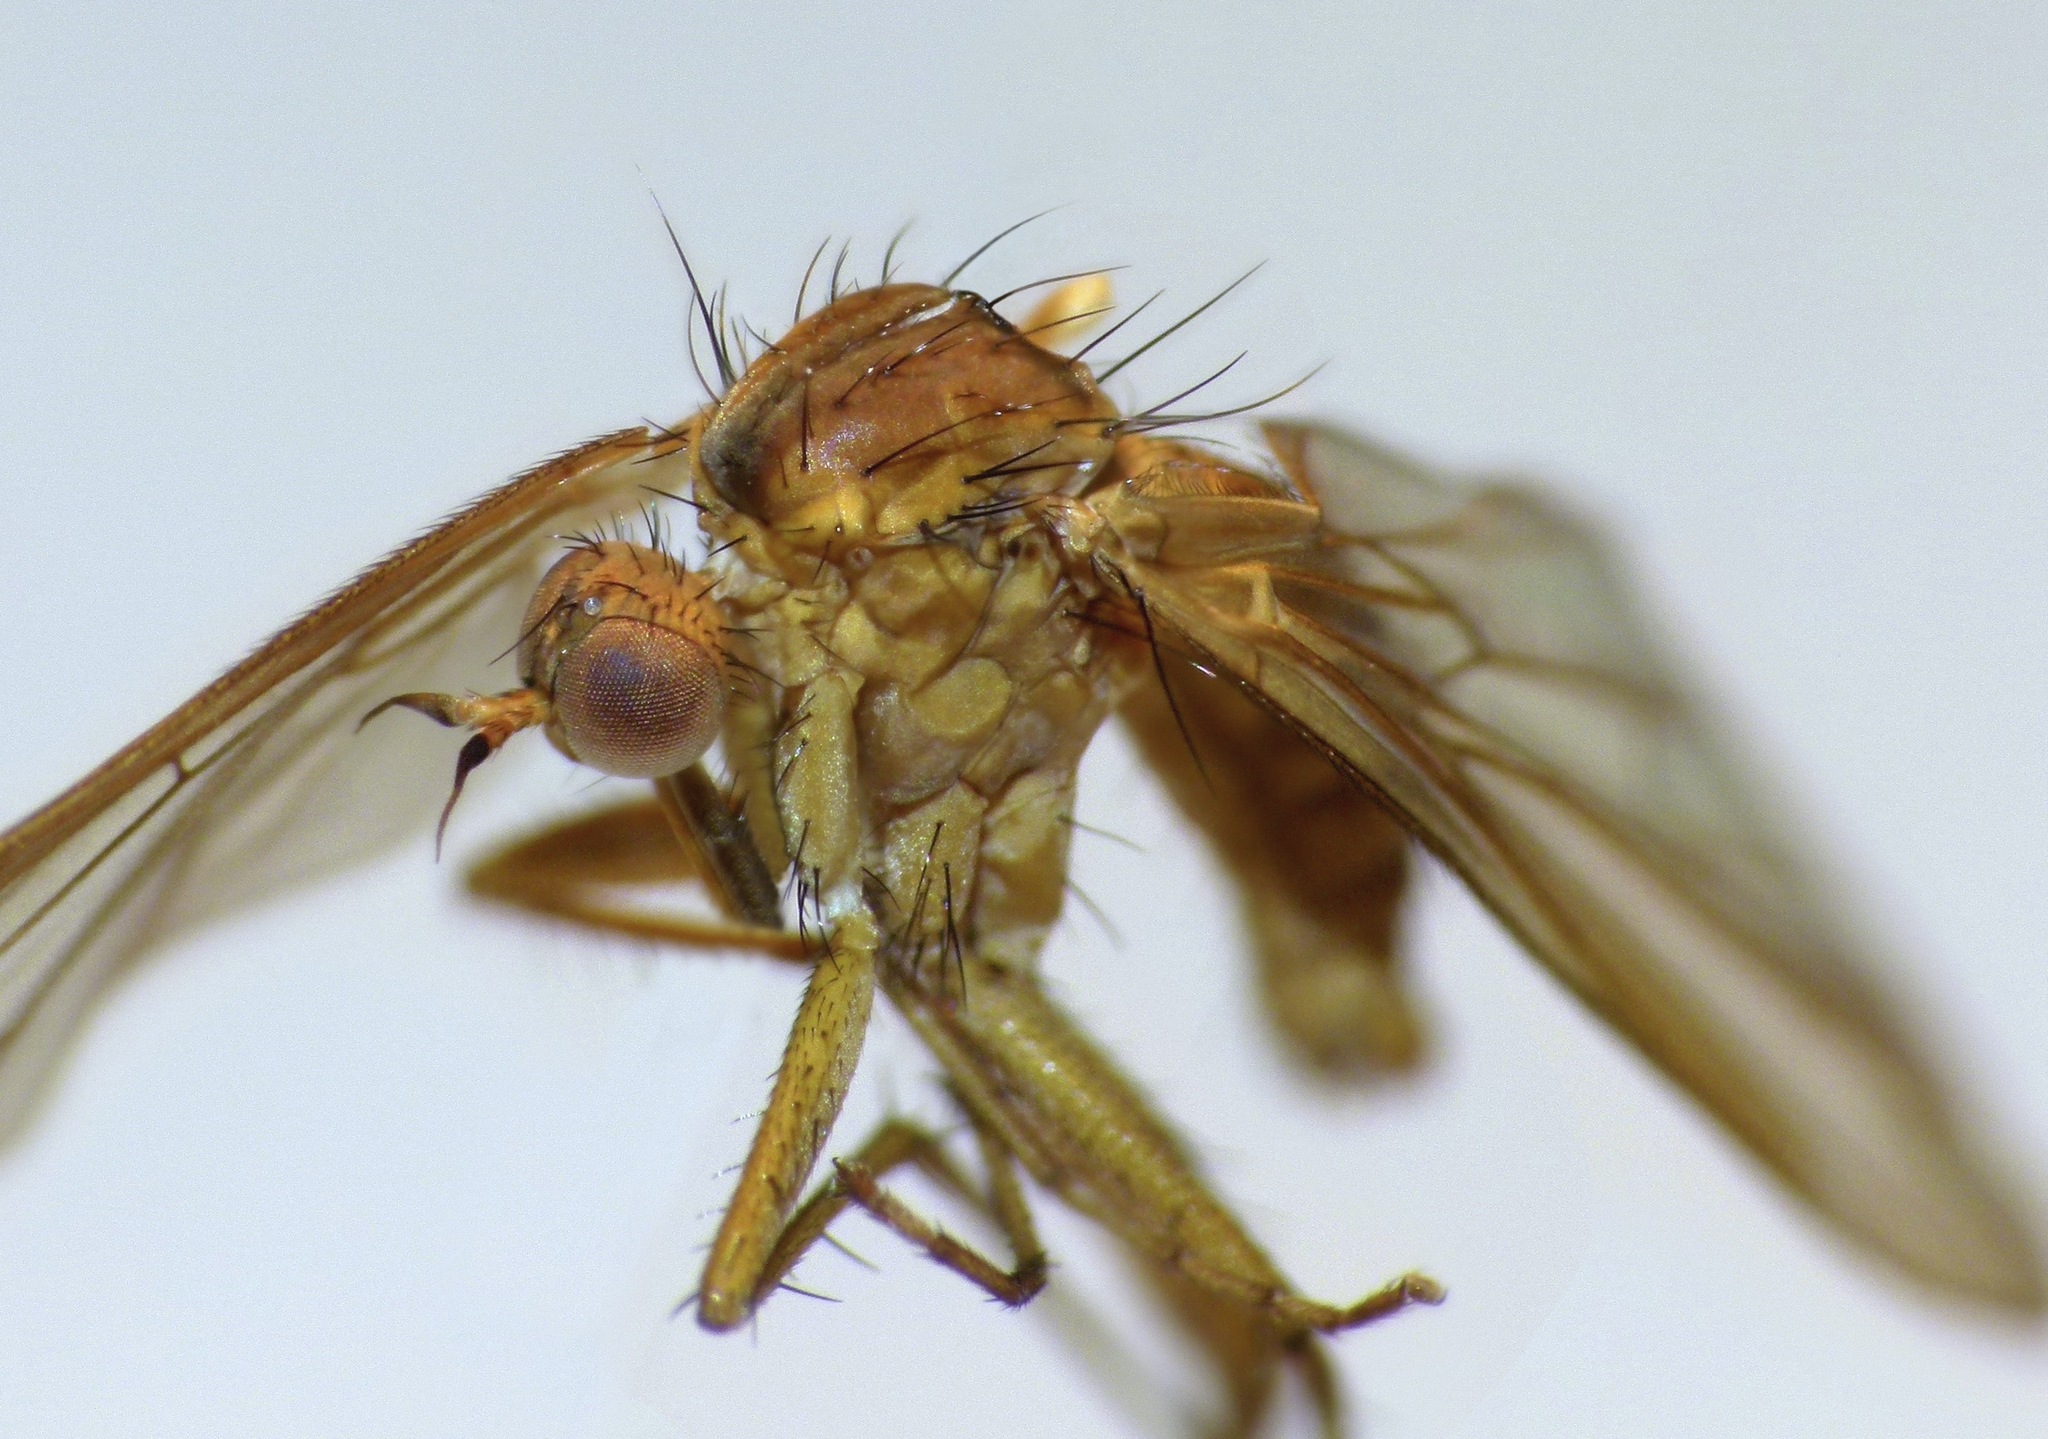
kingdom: Animalia
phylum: Arthropoda
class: Insecta
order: Diptera
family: Empididae
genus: Empidadelpha
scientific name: Empidadelpha torrentalis
